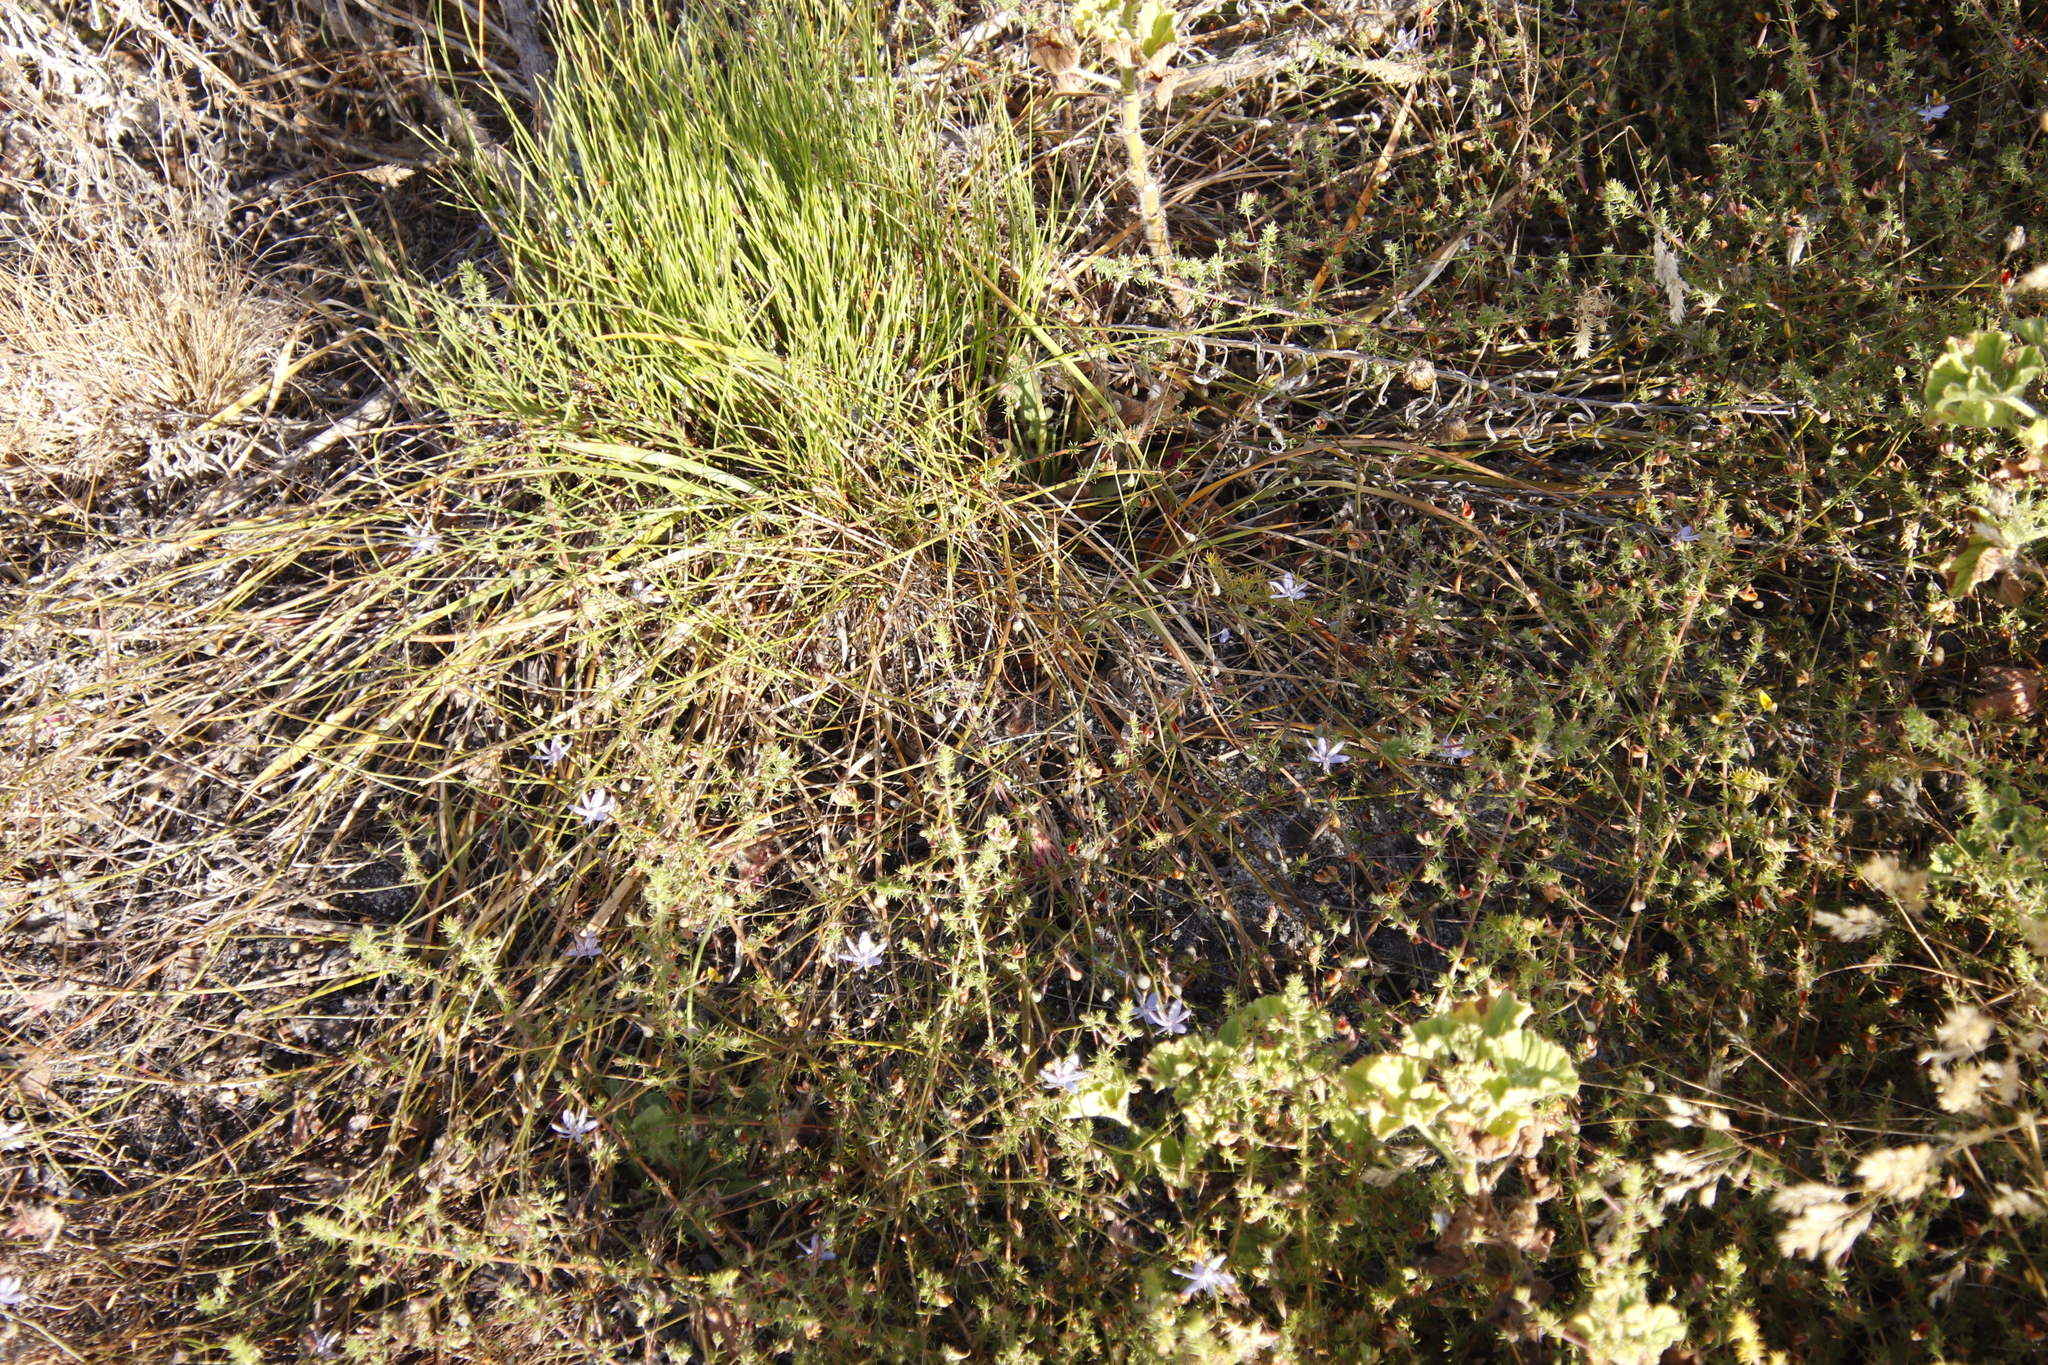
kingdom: Plantae
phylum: Tracheophyta
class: Liliopsida
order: Asparagales
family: Asphodelaceae
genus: Caesia
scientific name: Caesia contorta
